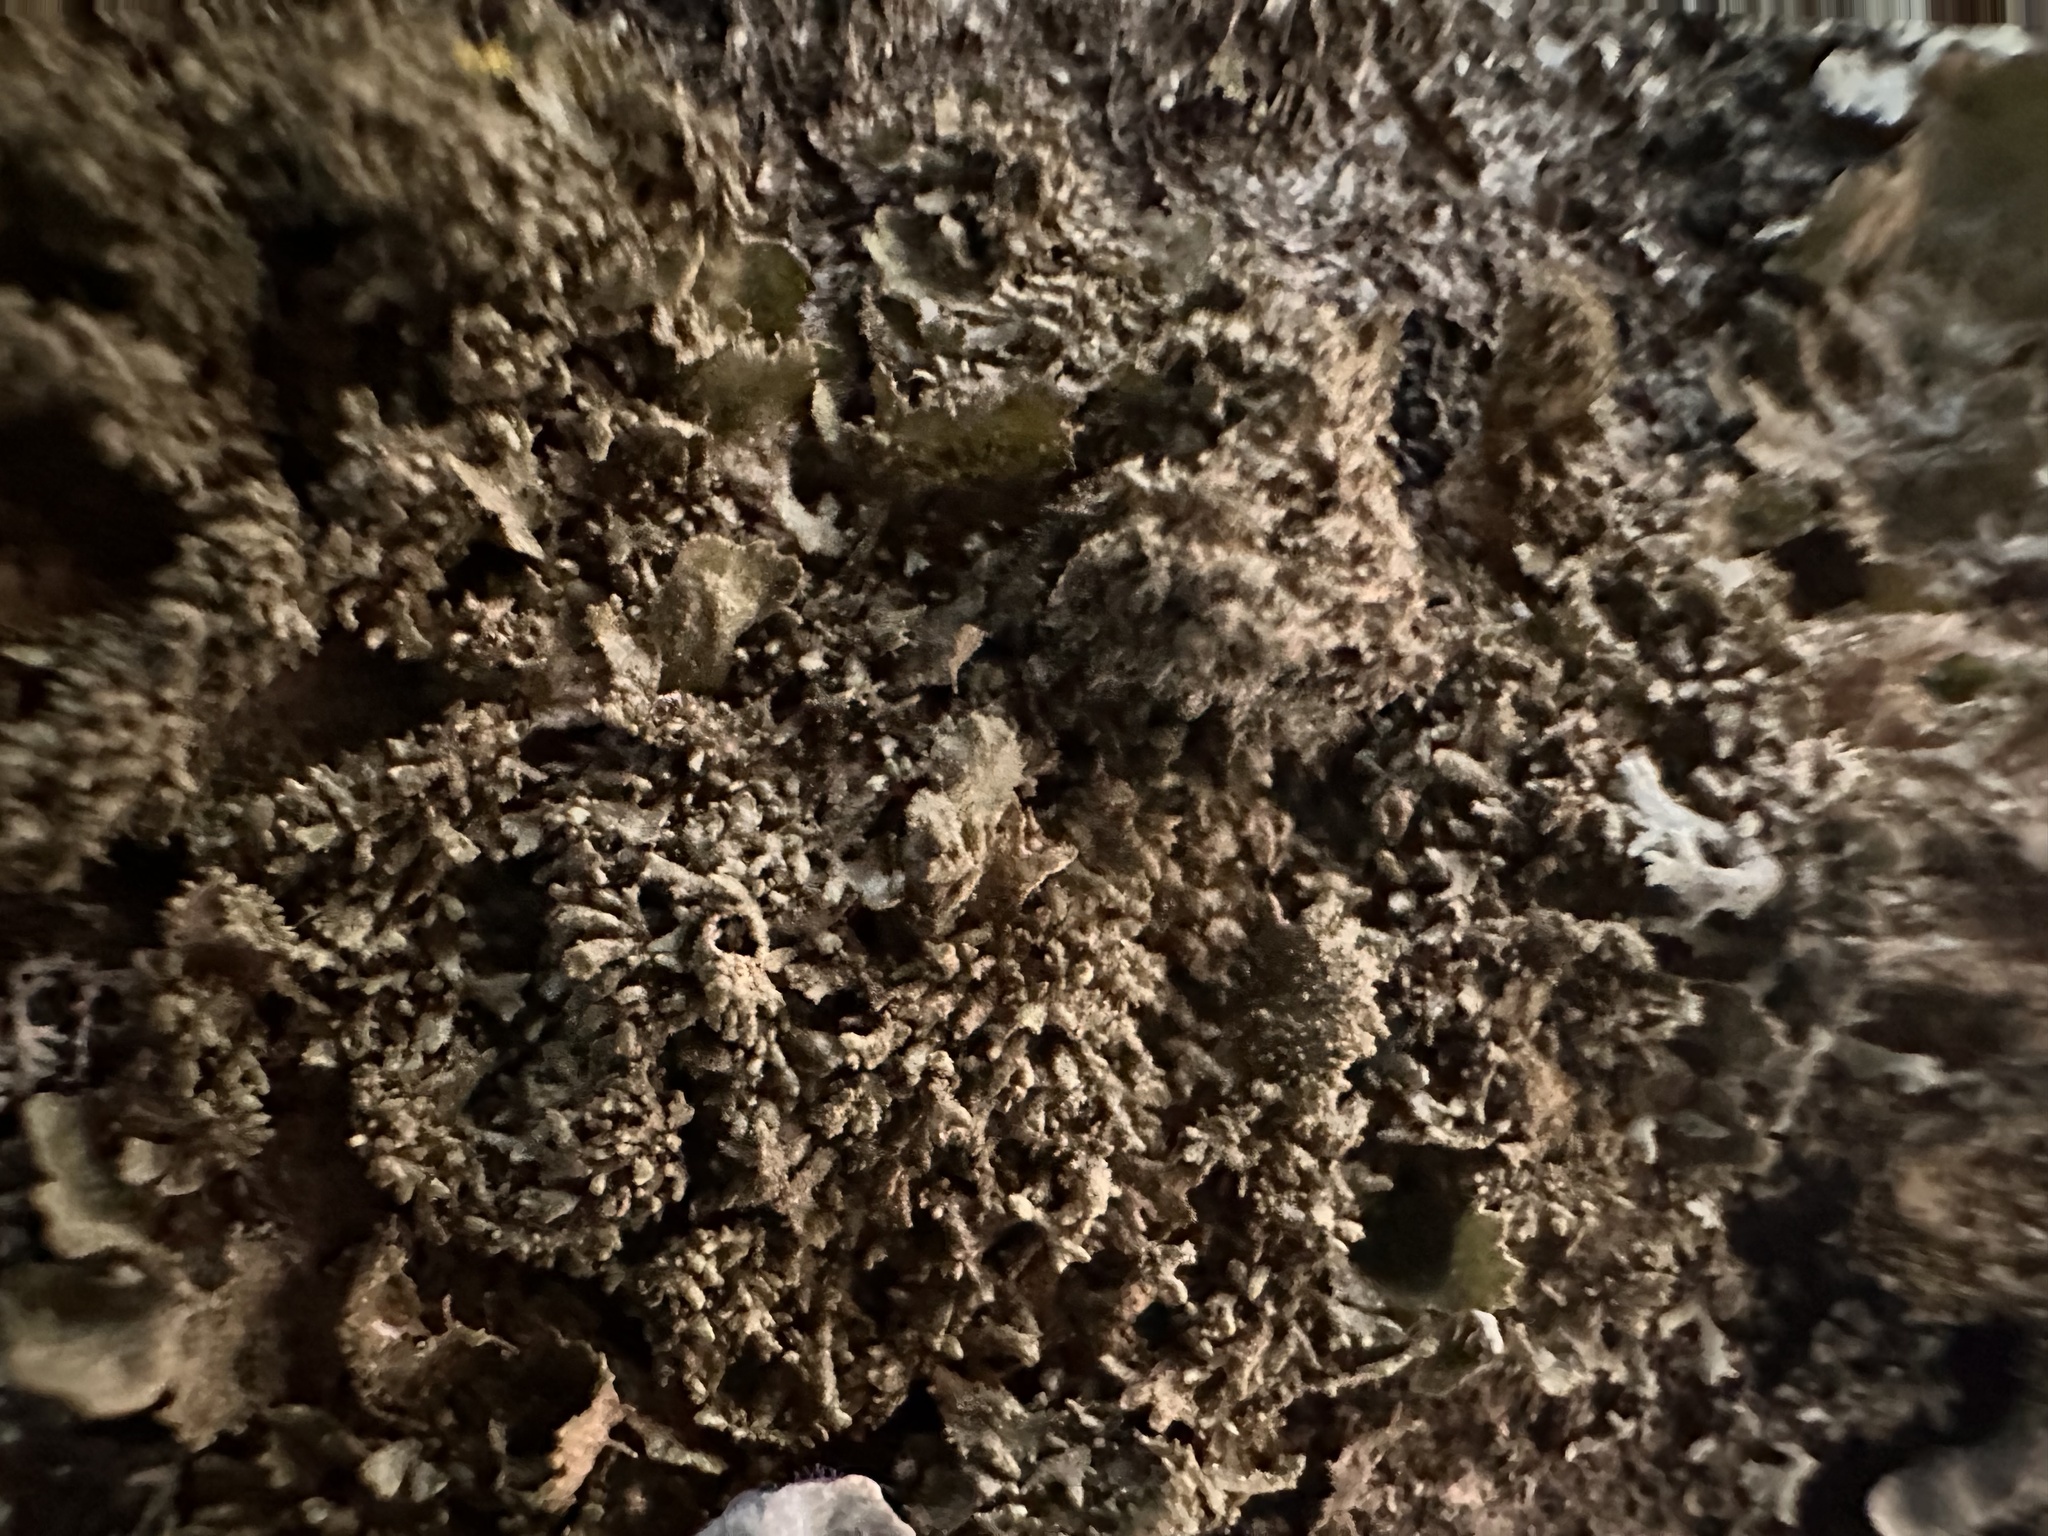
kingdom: Fungi
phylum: Ascomycota
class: Lecanoromycetes
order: Lecanorales
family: Parmeliaceae
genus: Melanohalea
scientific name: Melanohalea exasperatula
